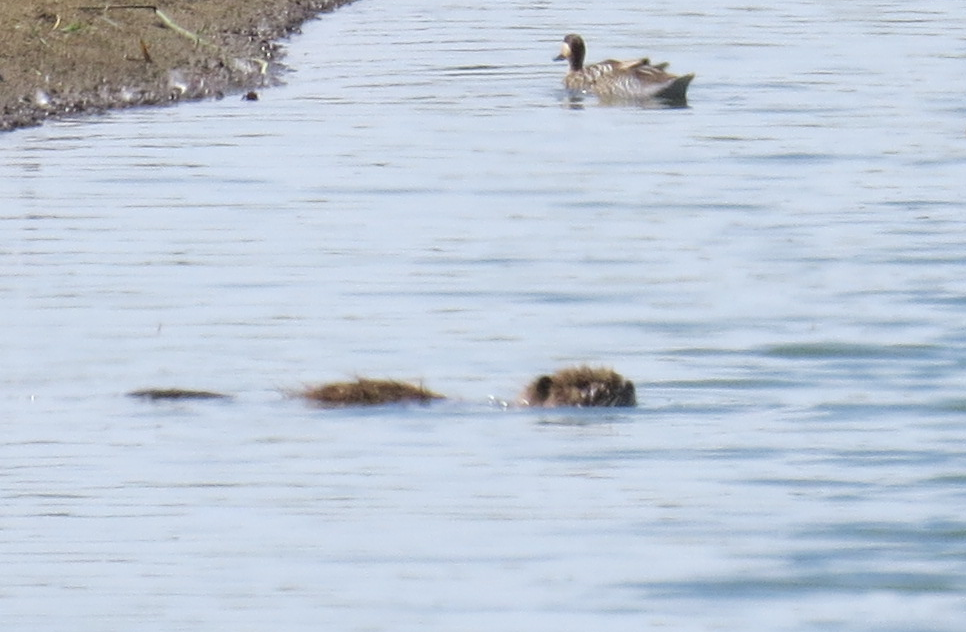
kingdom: Animalia
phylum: Chordata
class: Mammalia
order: Rodentia
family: Myocastoridae
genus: Myocastor
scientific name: Myocastor coypus
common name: Coypu
